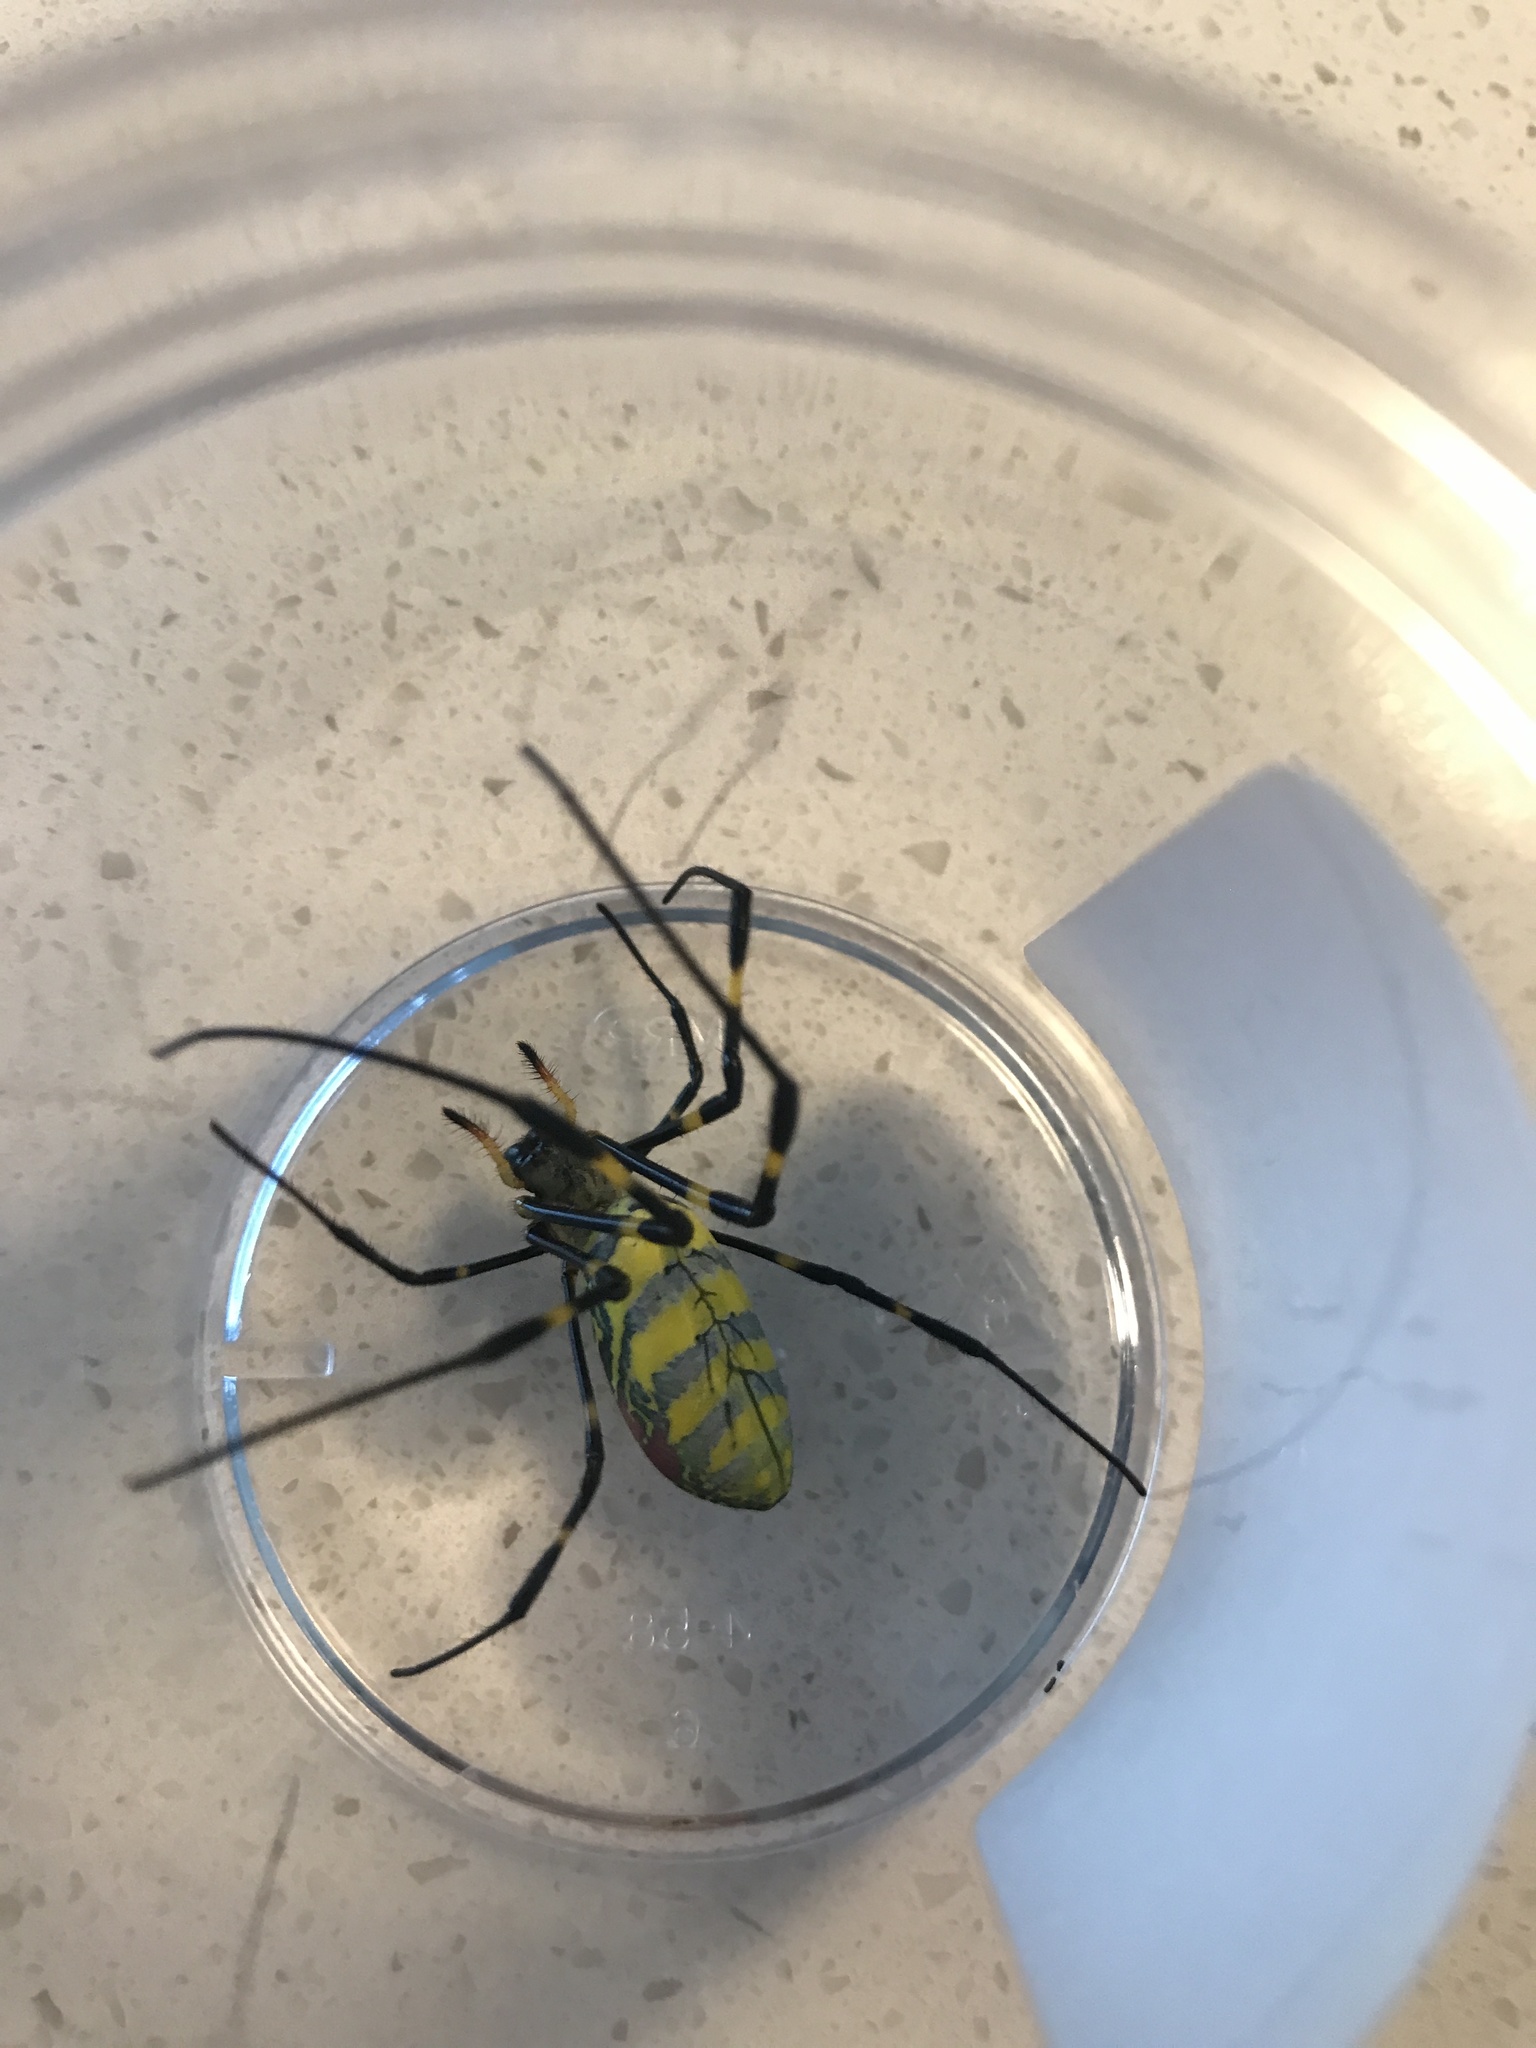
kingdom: Animalia
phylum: Arthropoda
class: Arachnida
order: Araneae
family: Araneidae
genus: Trichonephila
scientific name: Trichonephila clavata
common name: Jorō spider
